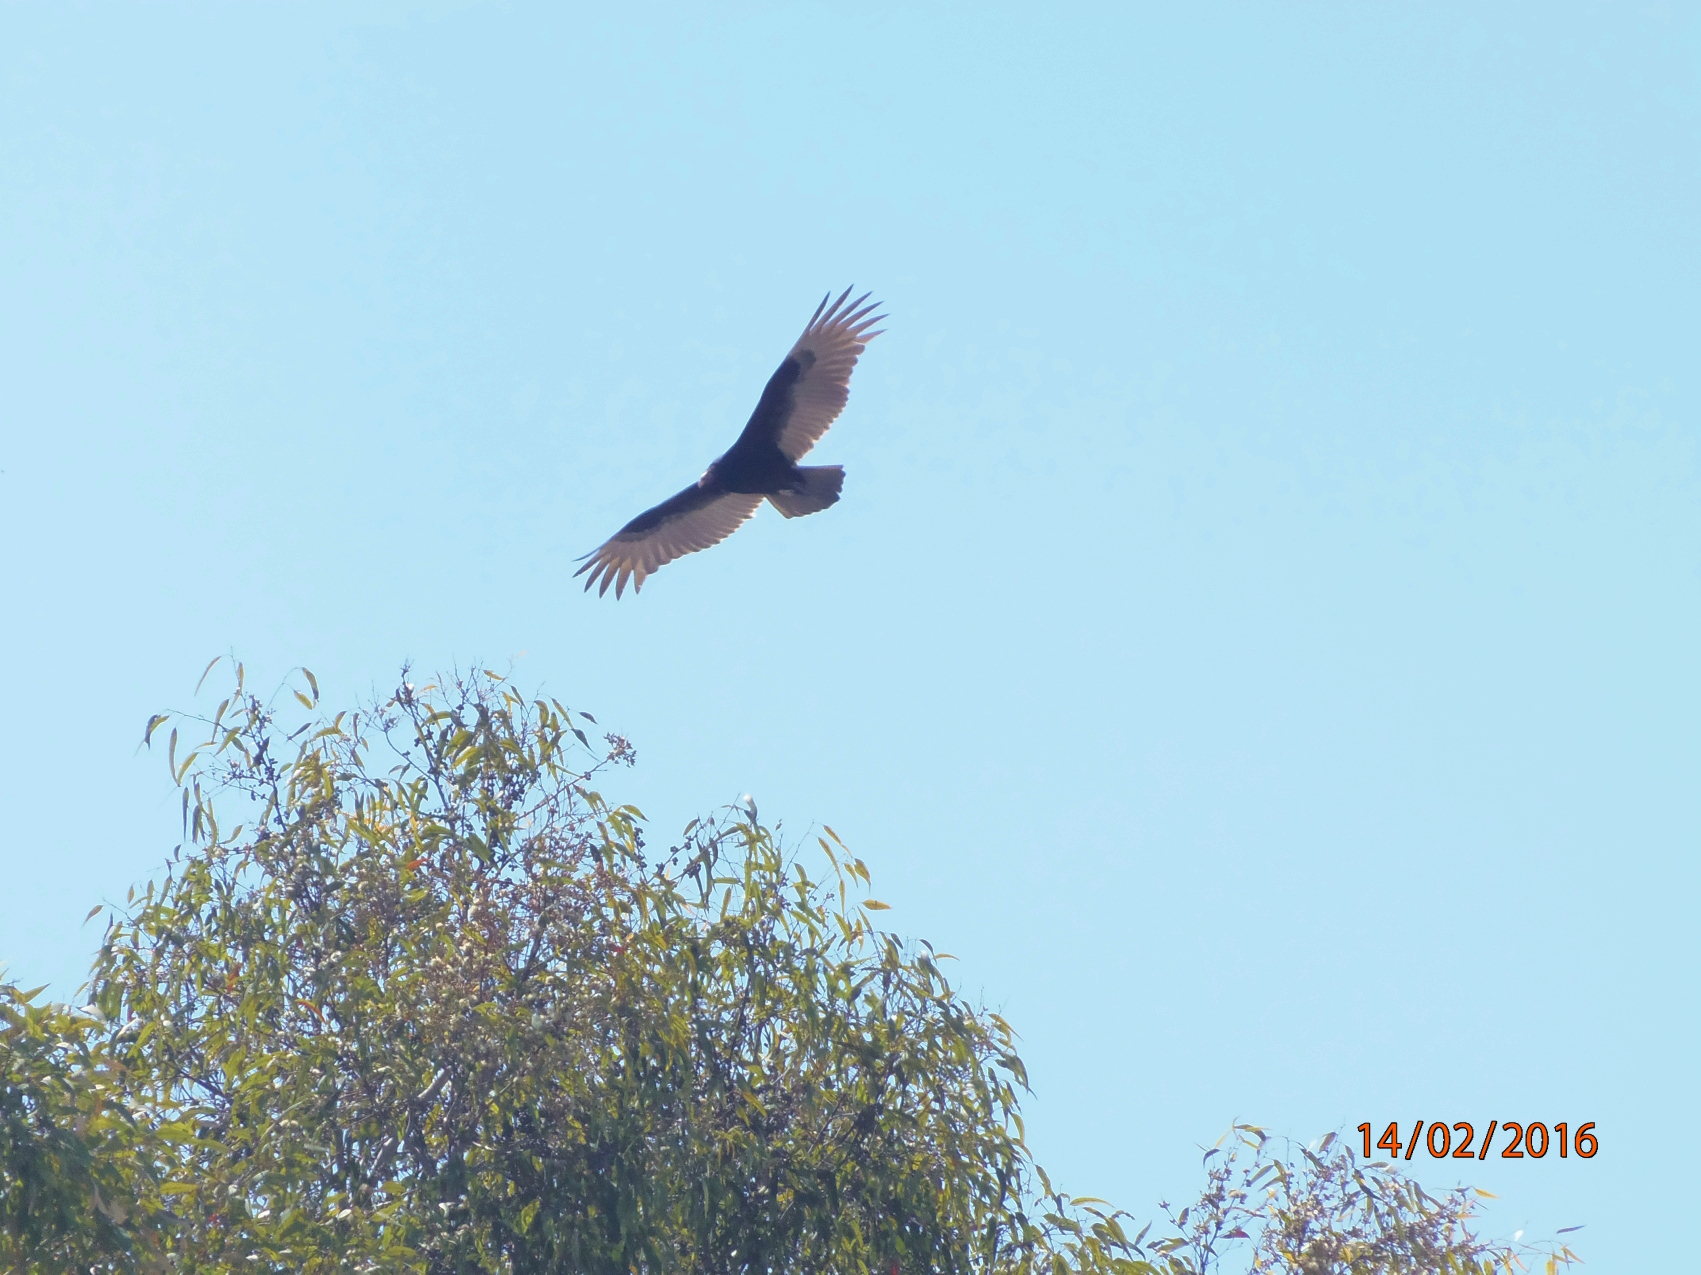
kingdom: Animalia
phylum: Chordata
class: Aves
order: Accipitriformes
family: Cathartidae
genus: Cathartes
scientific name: Cathartes aura
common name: Turkey vulture
